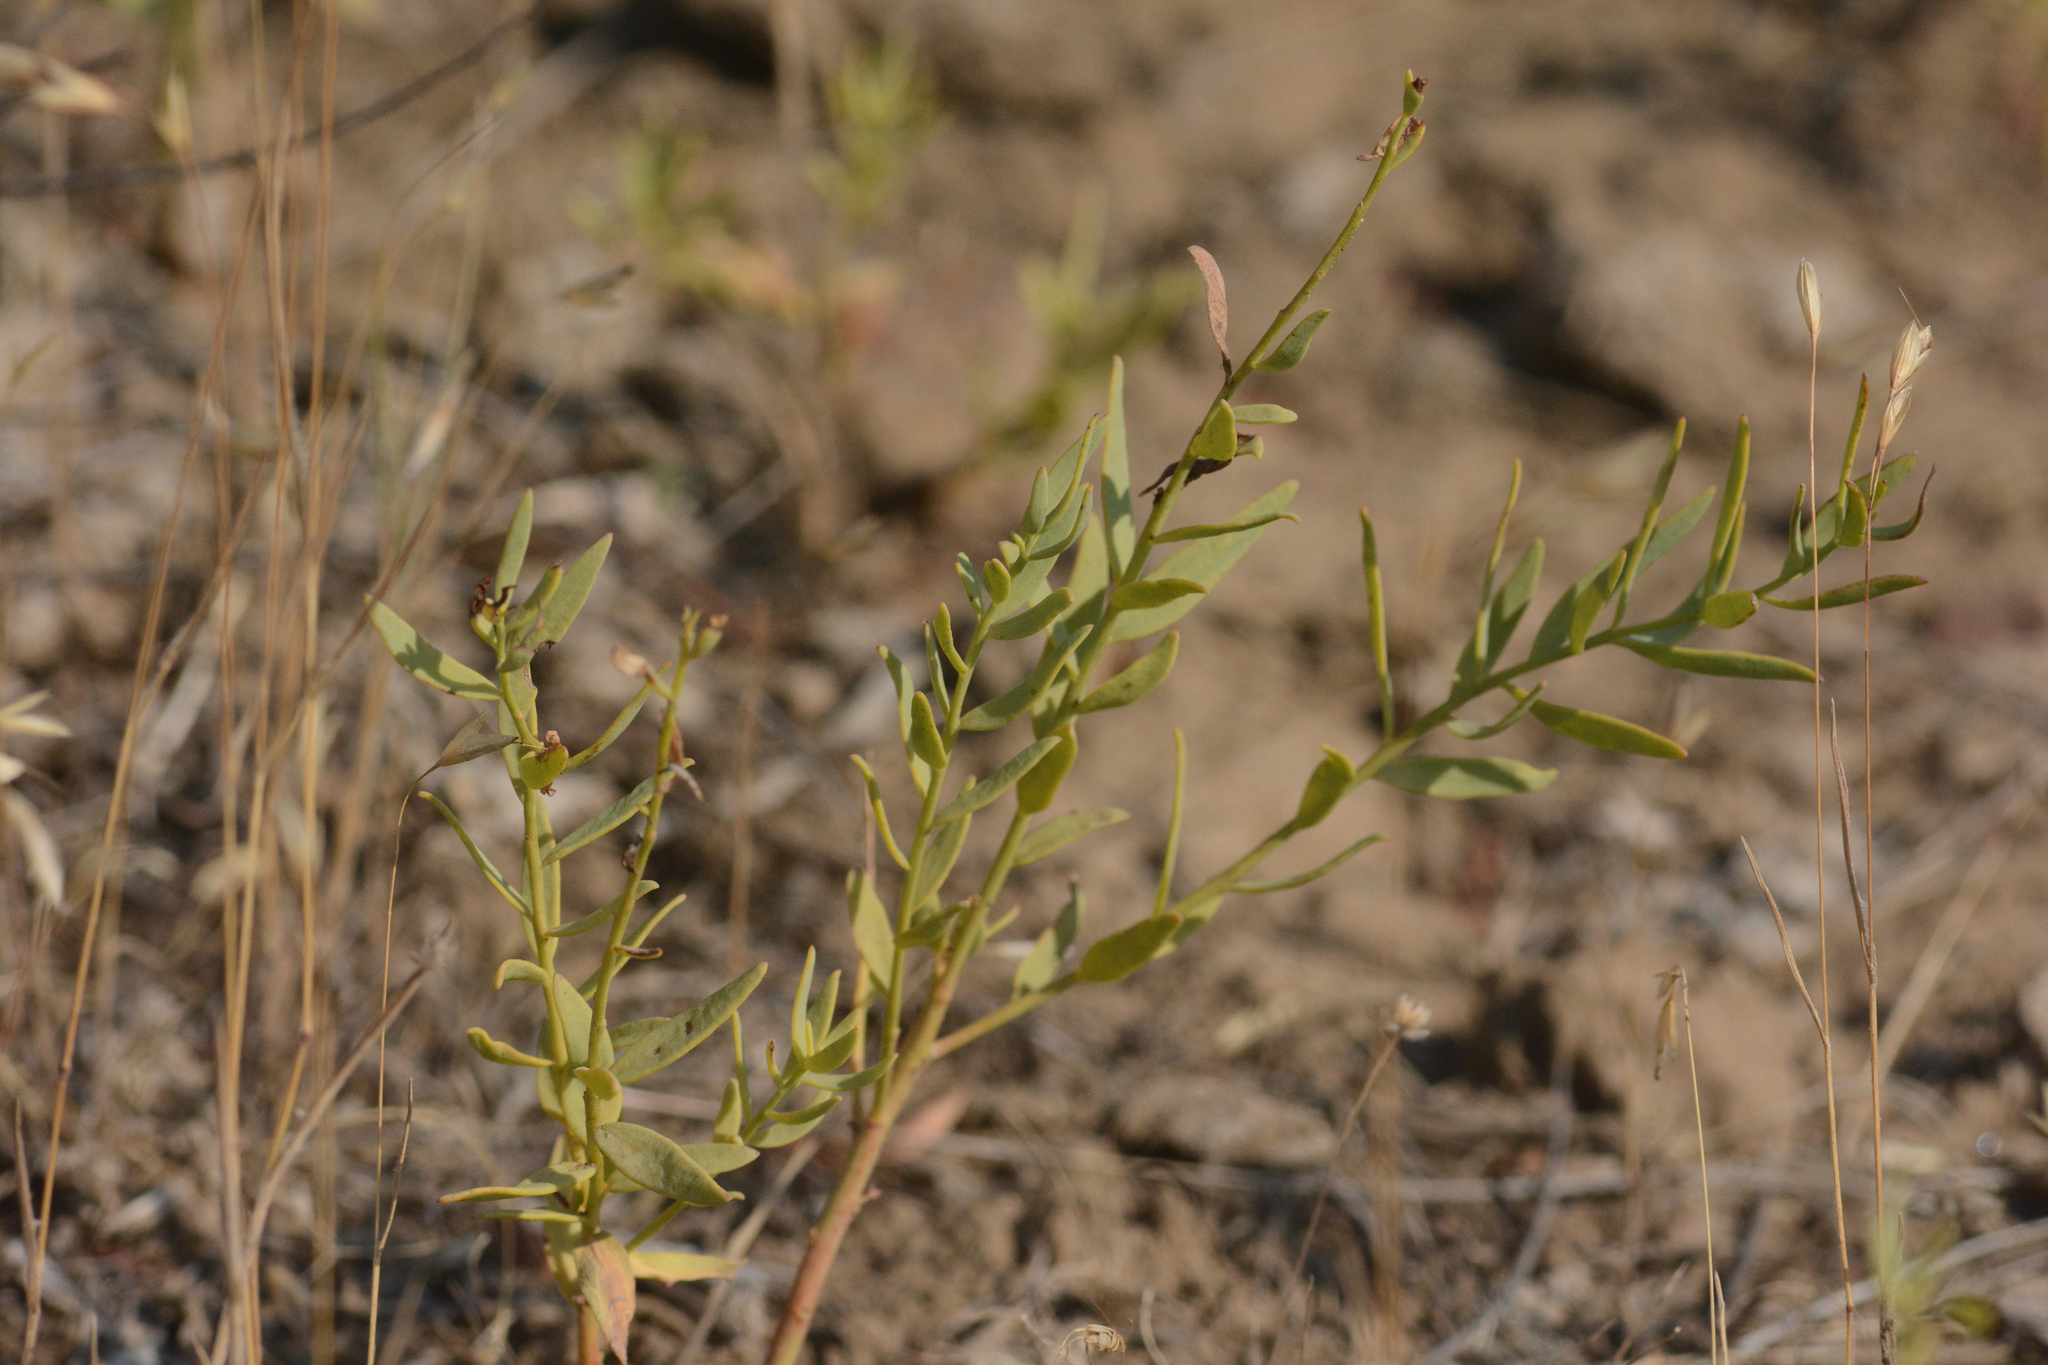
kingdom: Plantae
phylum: Tracheophyta
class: Magnoliopsida
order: Santalales
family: Comandraceae
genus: Comandra
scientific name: Comandra umbellata
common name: Bastard toadflax
